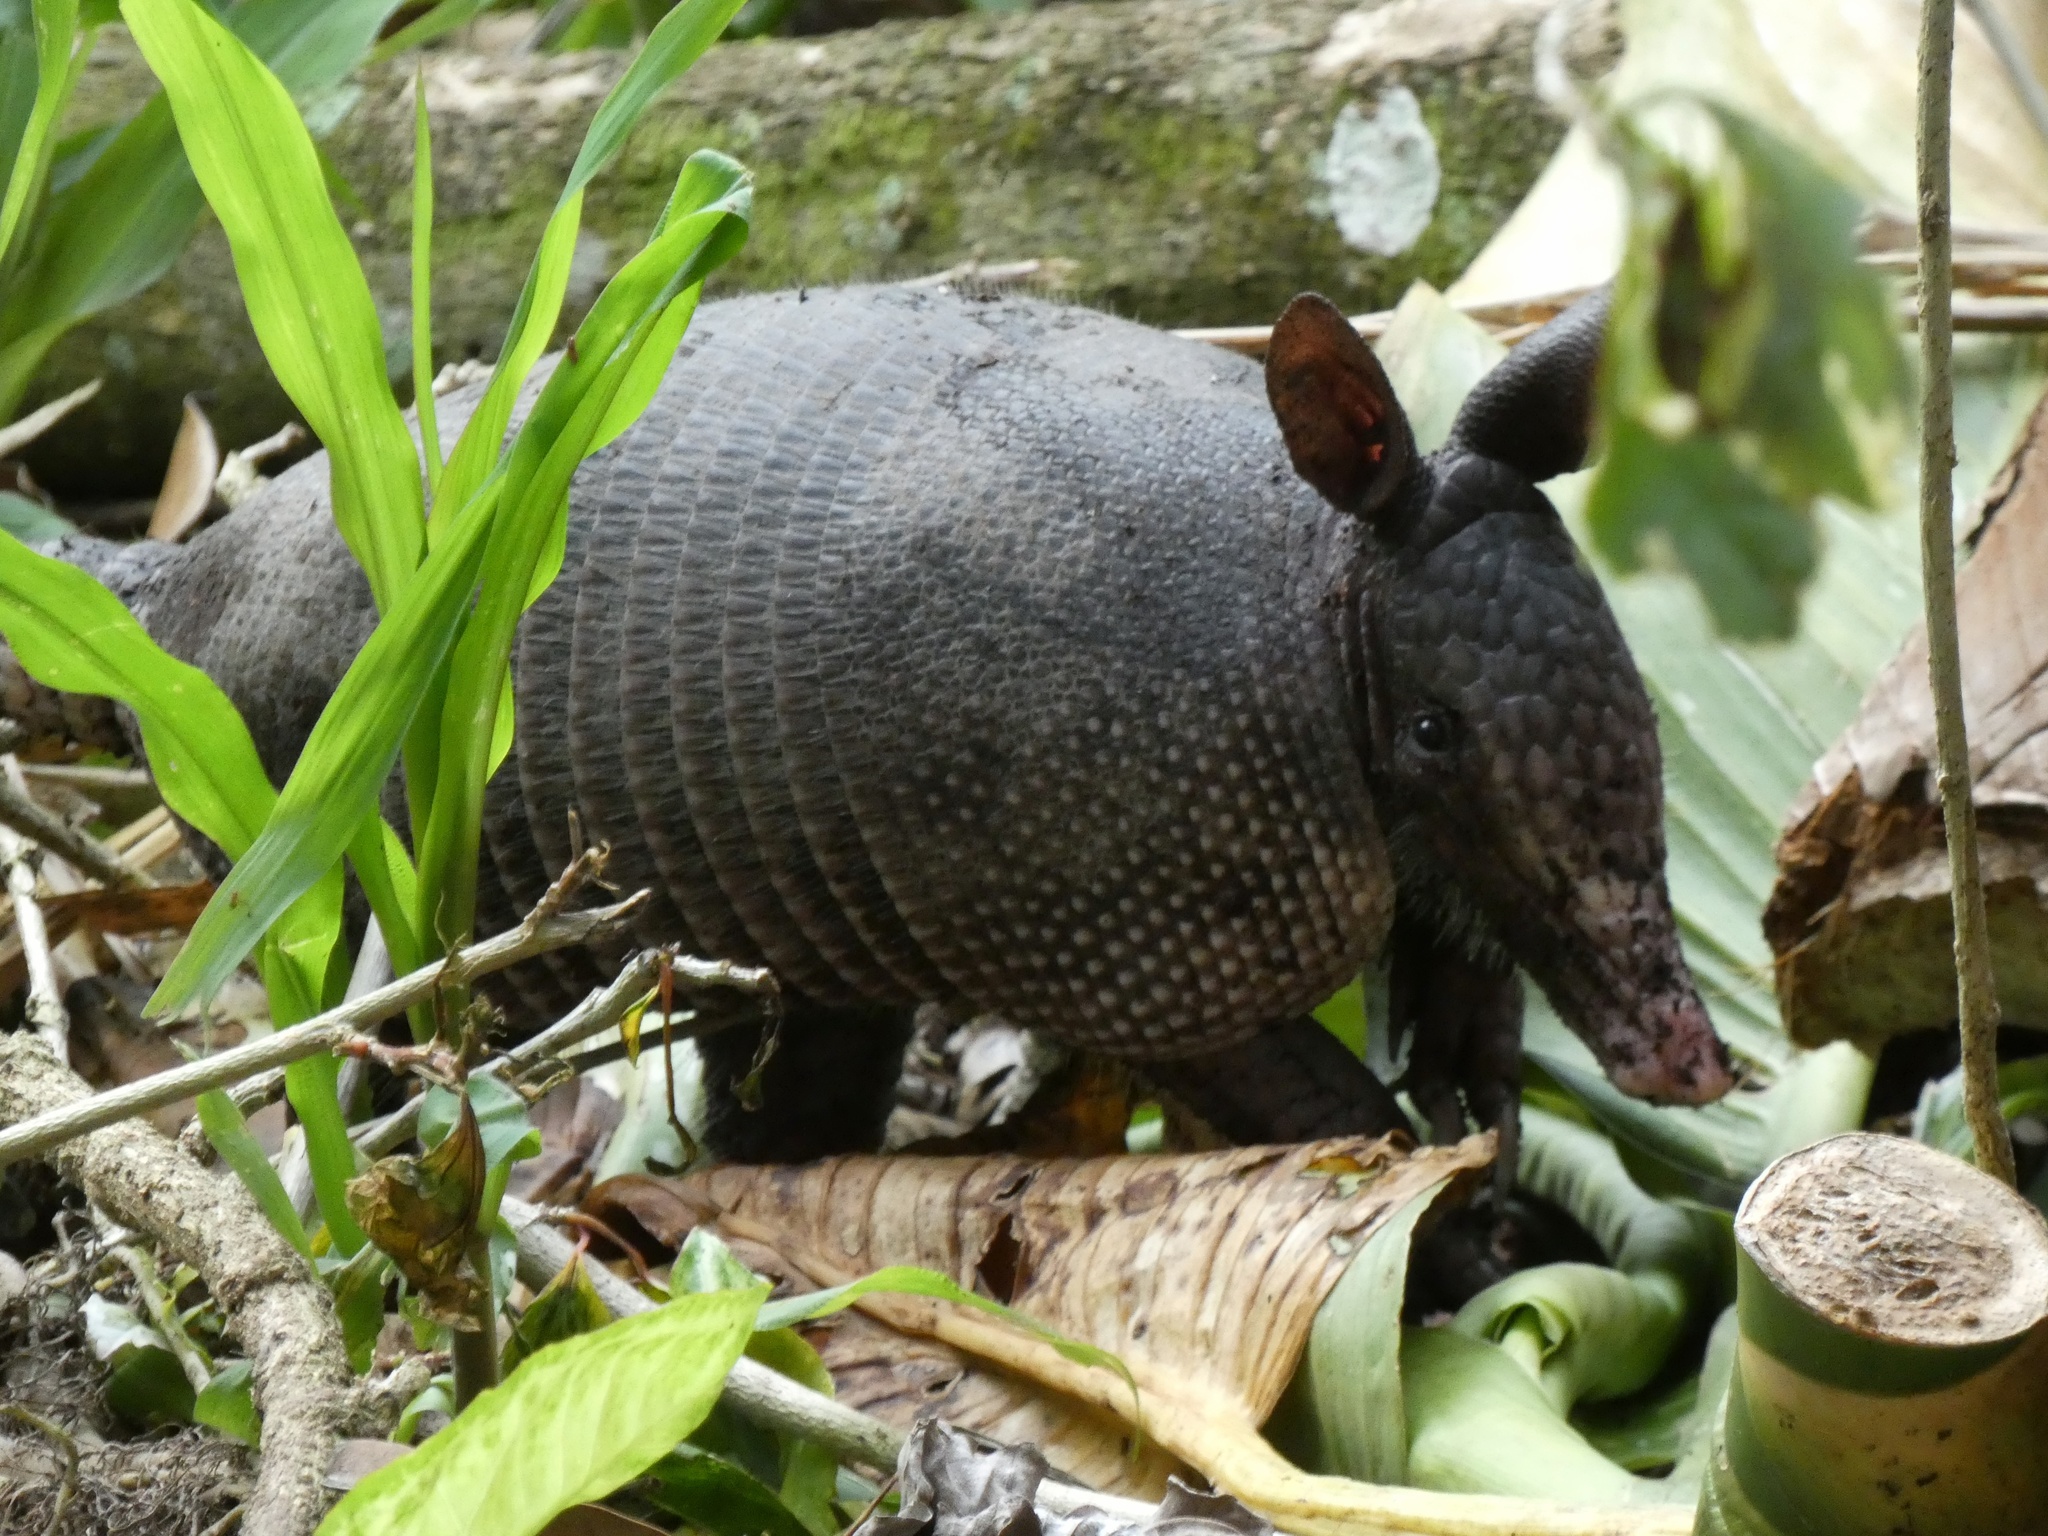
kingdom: Animalia
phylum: Chordata
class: Mammalia
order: Cingulata
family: Dasypodidae
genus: Dasypus
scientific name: Dasypus novemcinctus
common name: Nine-banded armadillo
